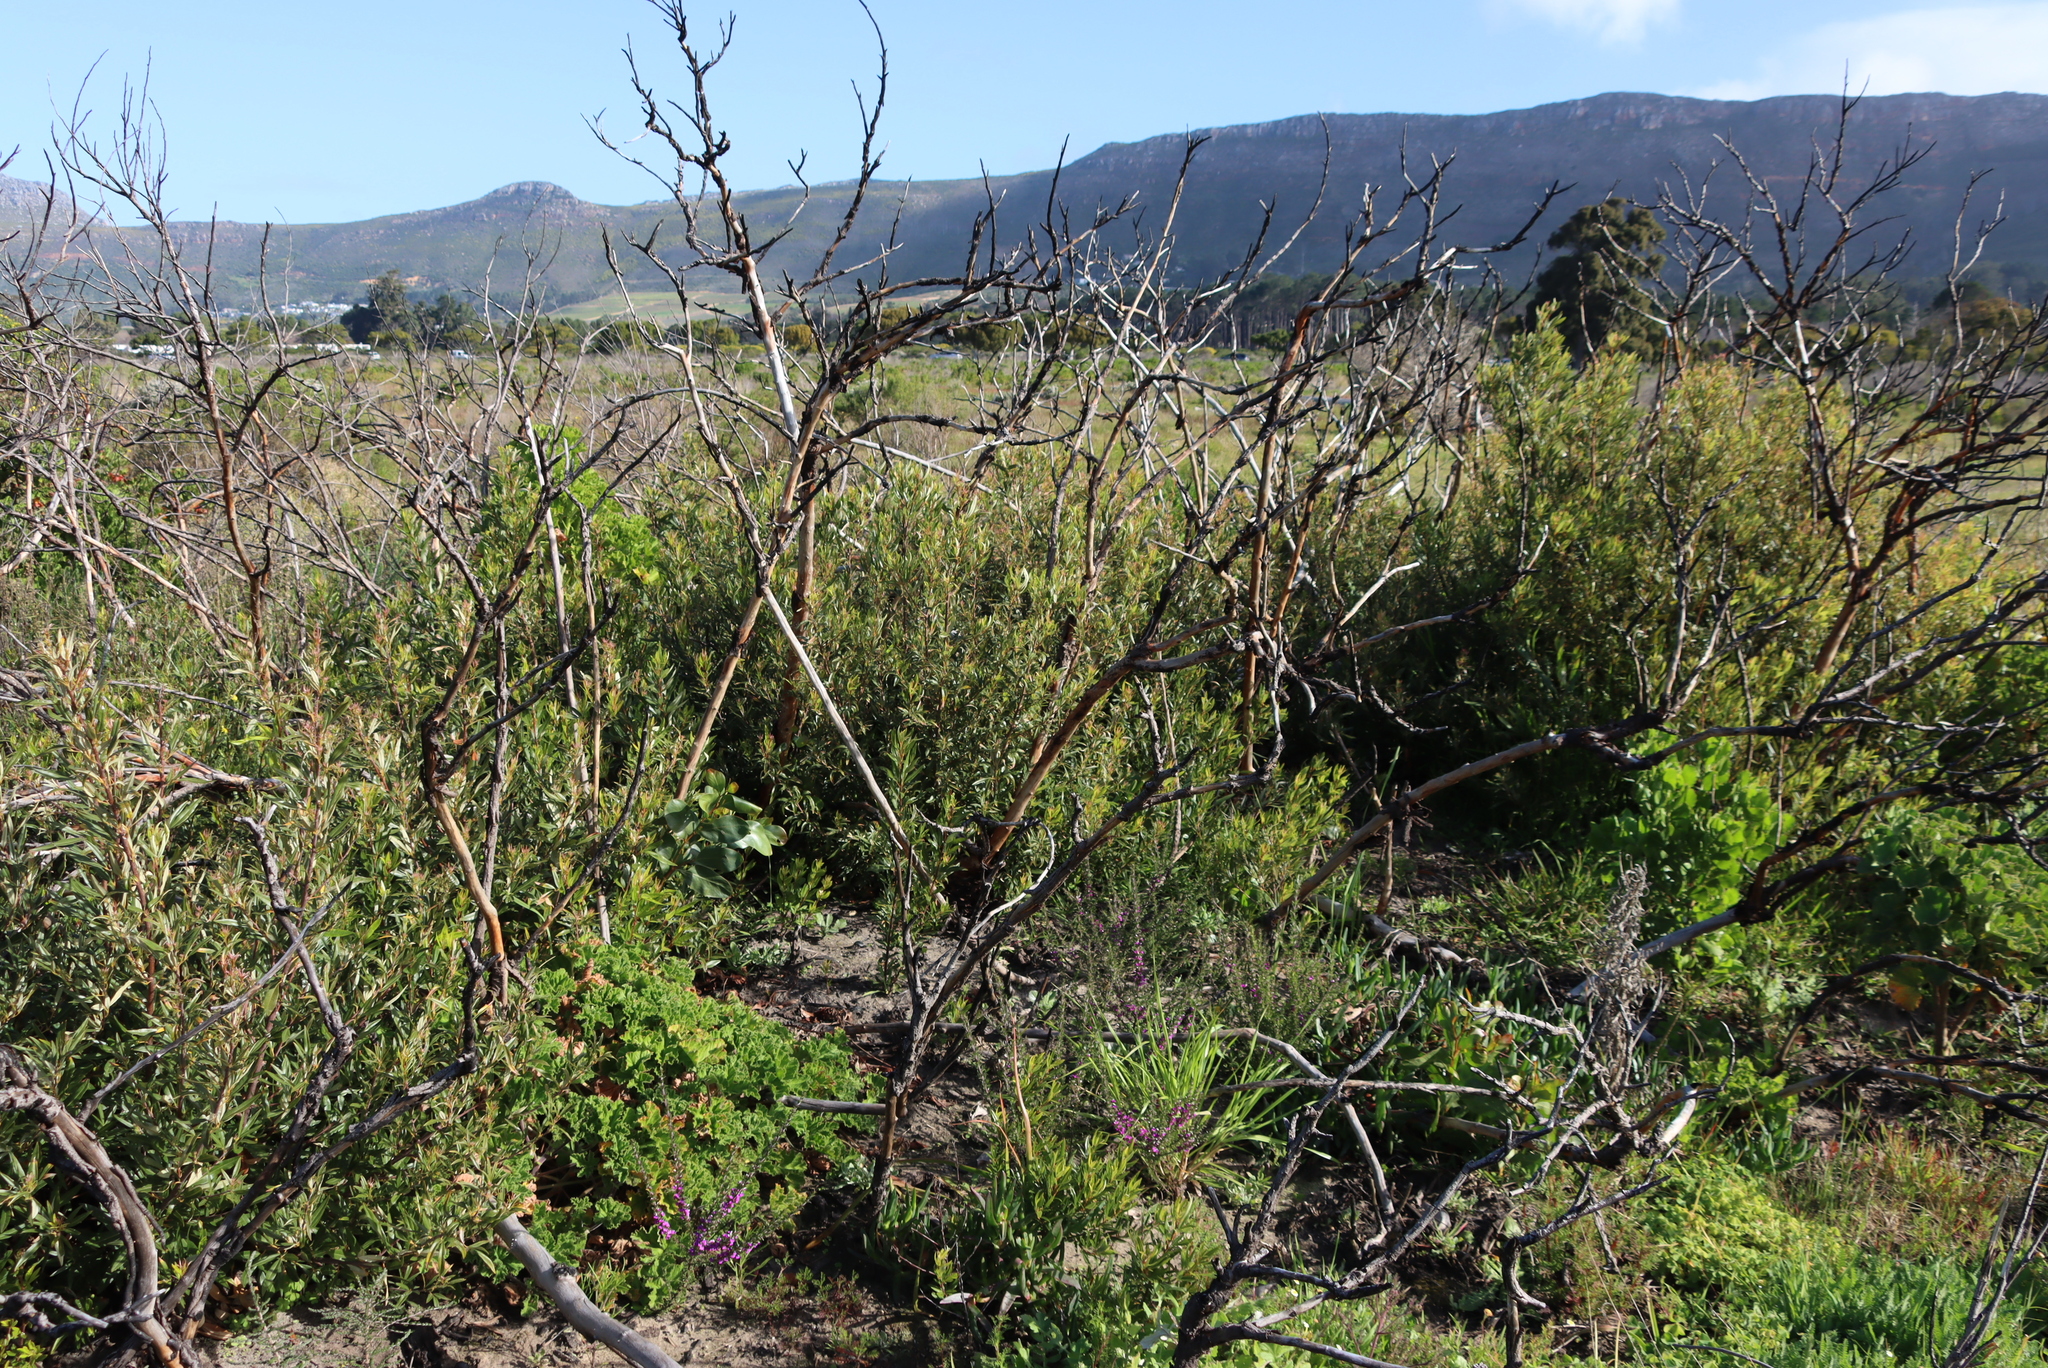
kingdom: Plantae
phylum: Tracheophyta
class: Magnoliopsida
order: Sapindales
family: Anacardiaceae
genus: Searsia
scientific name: Searsia laevigata
